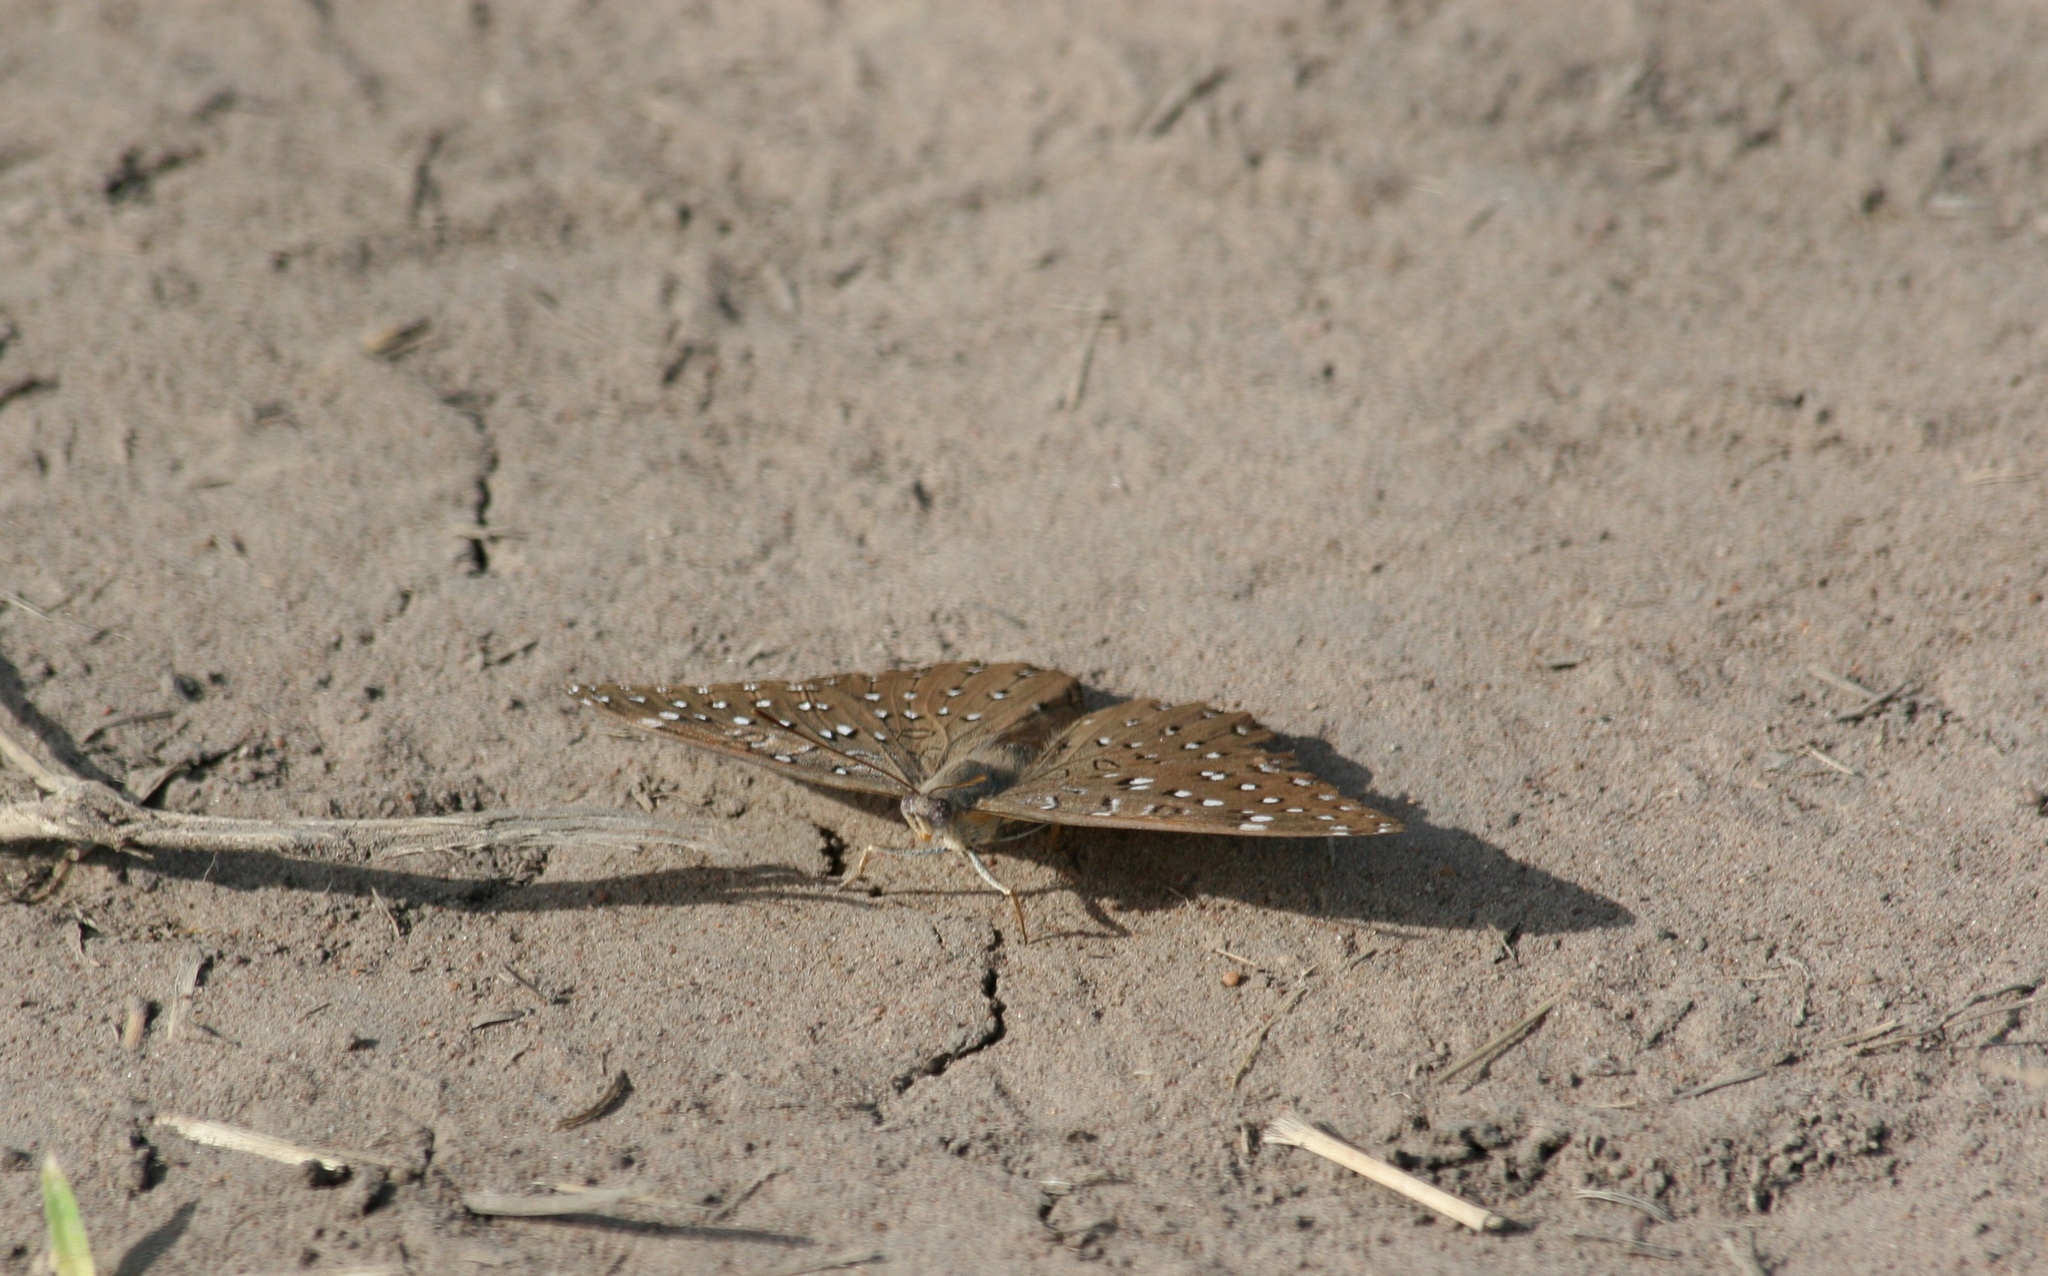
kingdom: Animalia
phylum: Arthropoda
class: Insecta
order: Lepidoptera
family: Nymphalidae
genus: Hamanumida
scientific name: Hamanumida daedalus
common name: Guinea-fowl butterfly
